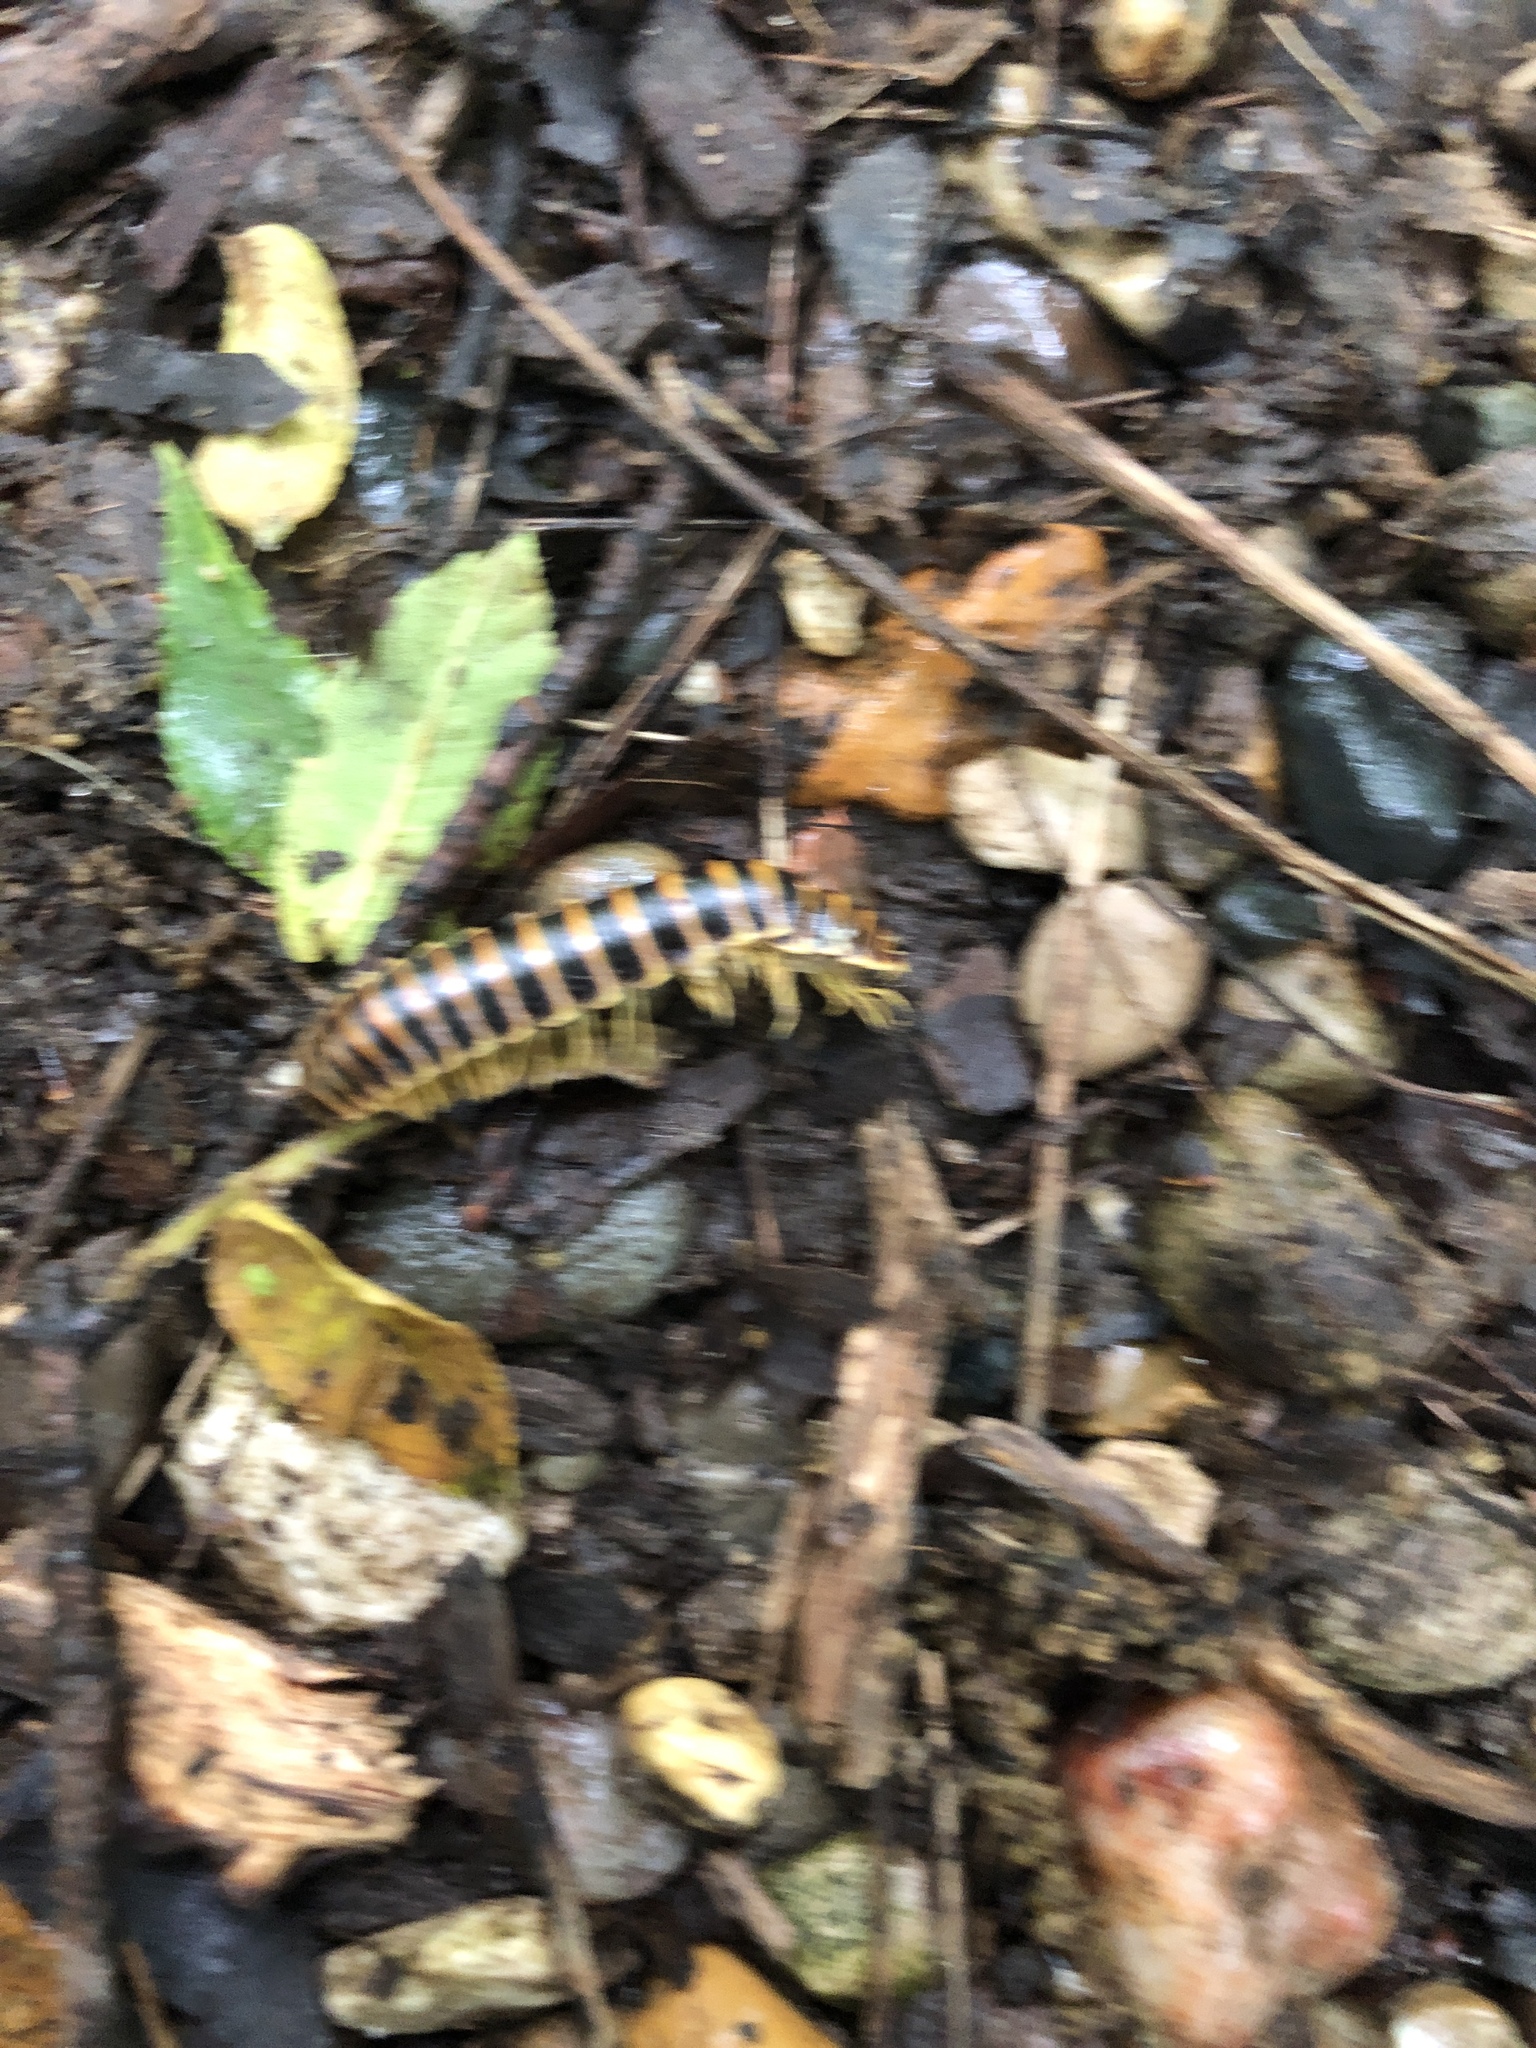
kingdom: Animalia
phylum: Arthropoda
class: Diplopoda
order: Polydesmida
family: Xystodesmidae
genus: Pleuroloma
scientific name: Pleuroloma flavipes
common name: Yellow-legged pleuroloma
